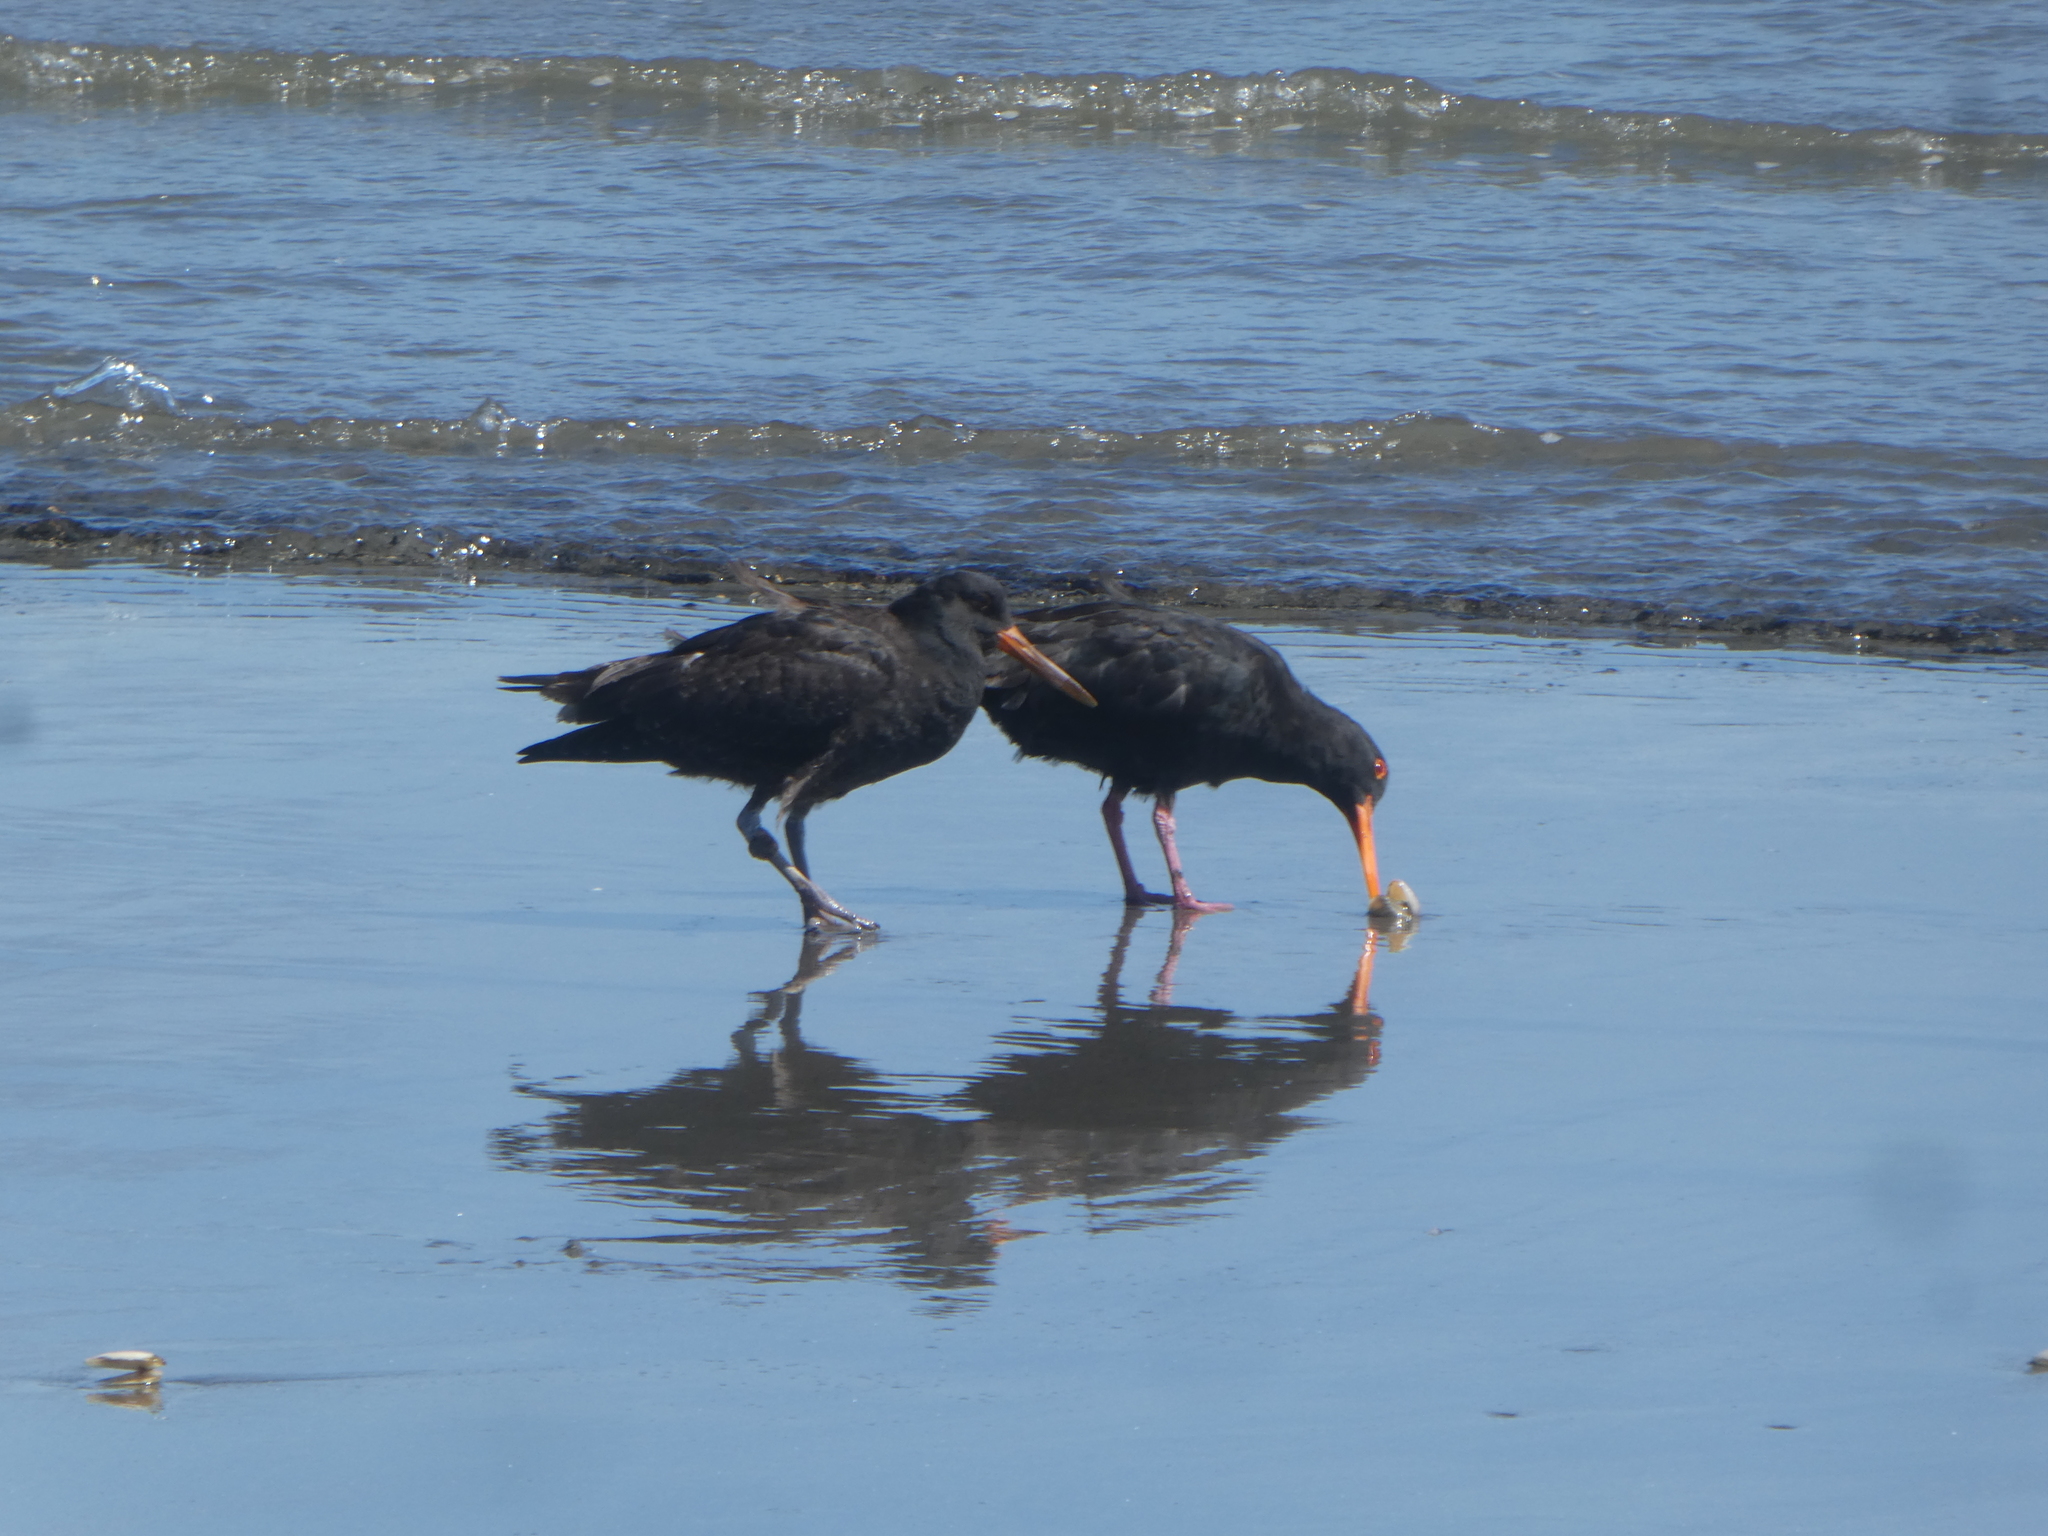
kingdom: Animalia
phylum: Chordata
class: Aves
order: Charadriiformes
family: Haematopodidae
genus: Haematopus
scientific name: Haematopus unicolor
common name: Variable oystercatcher
